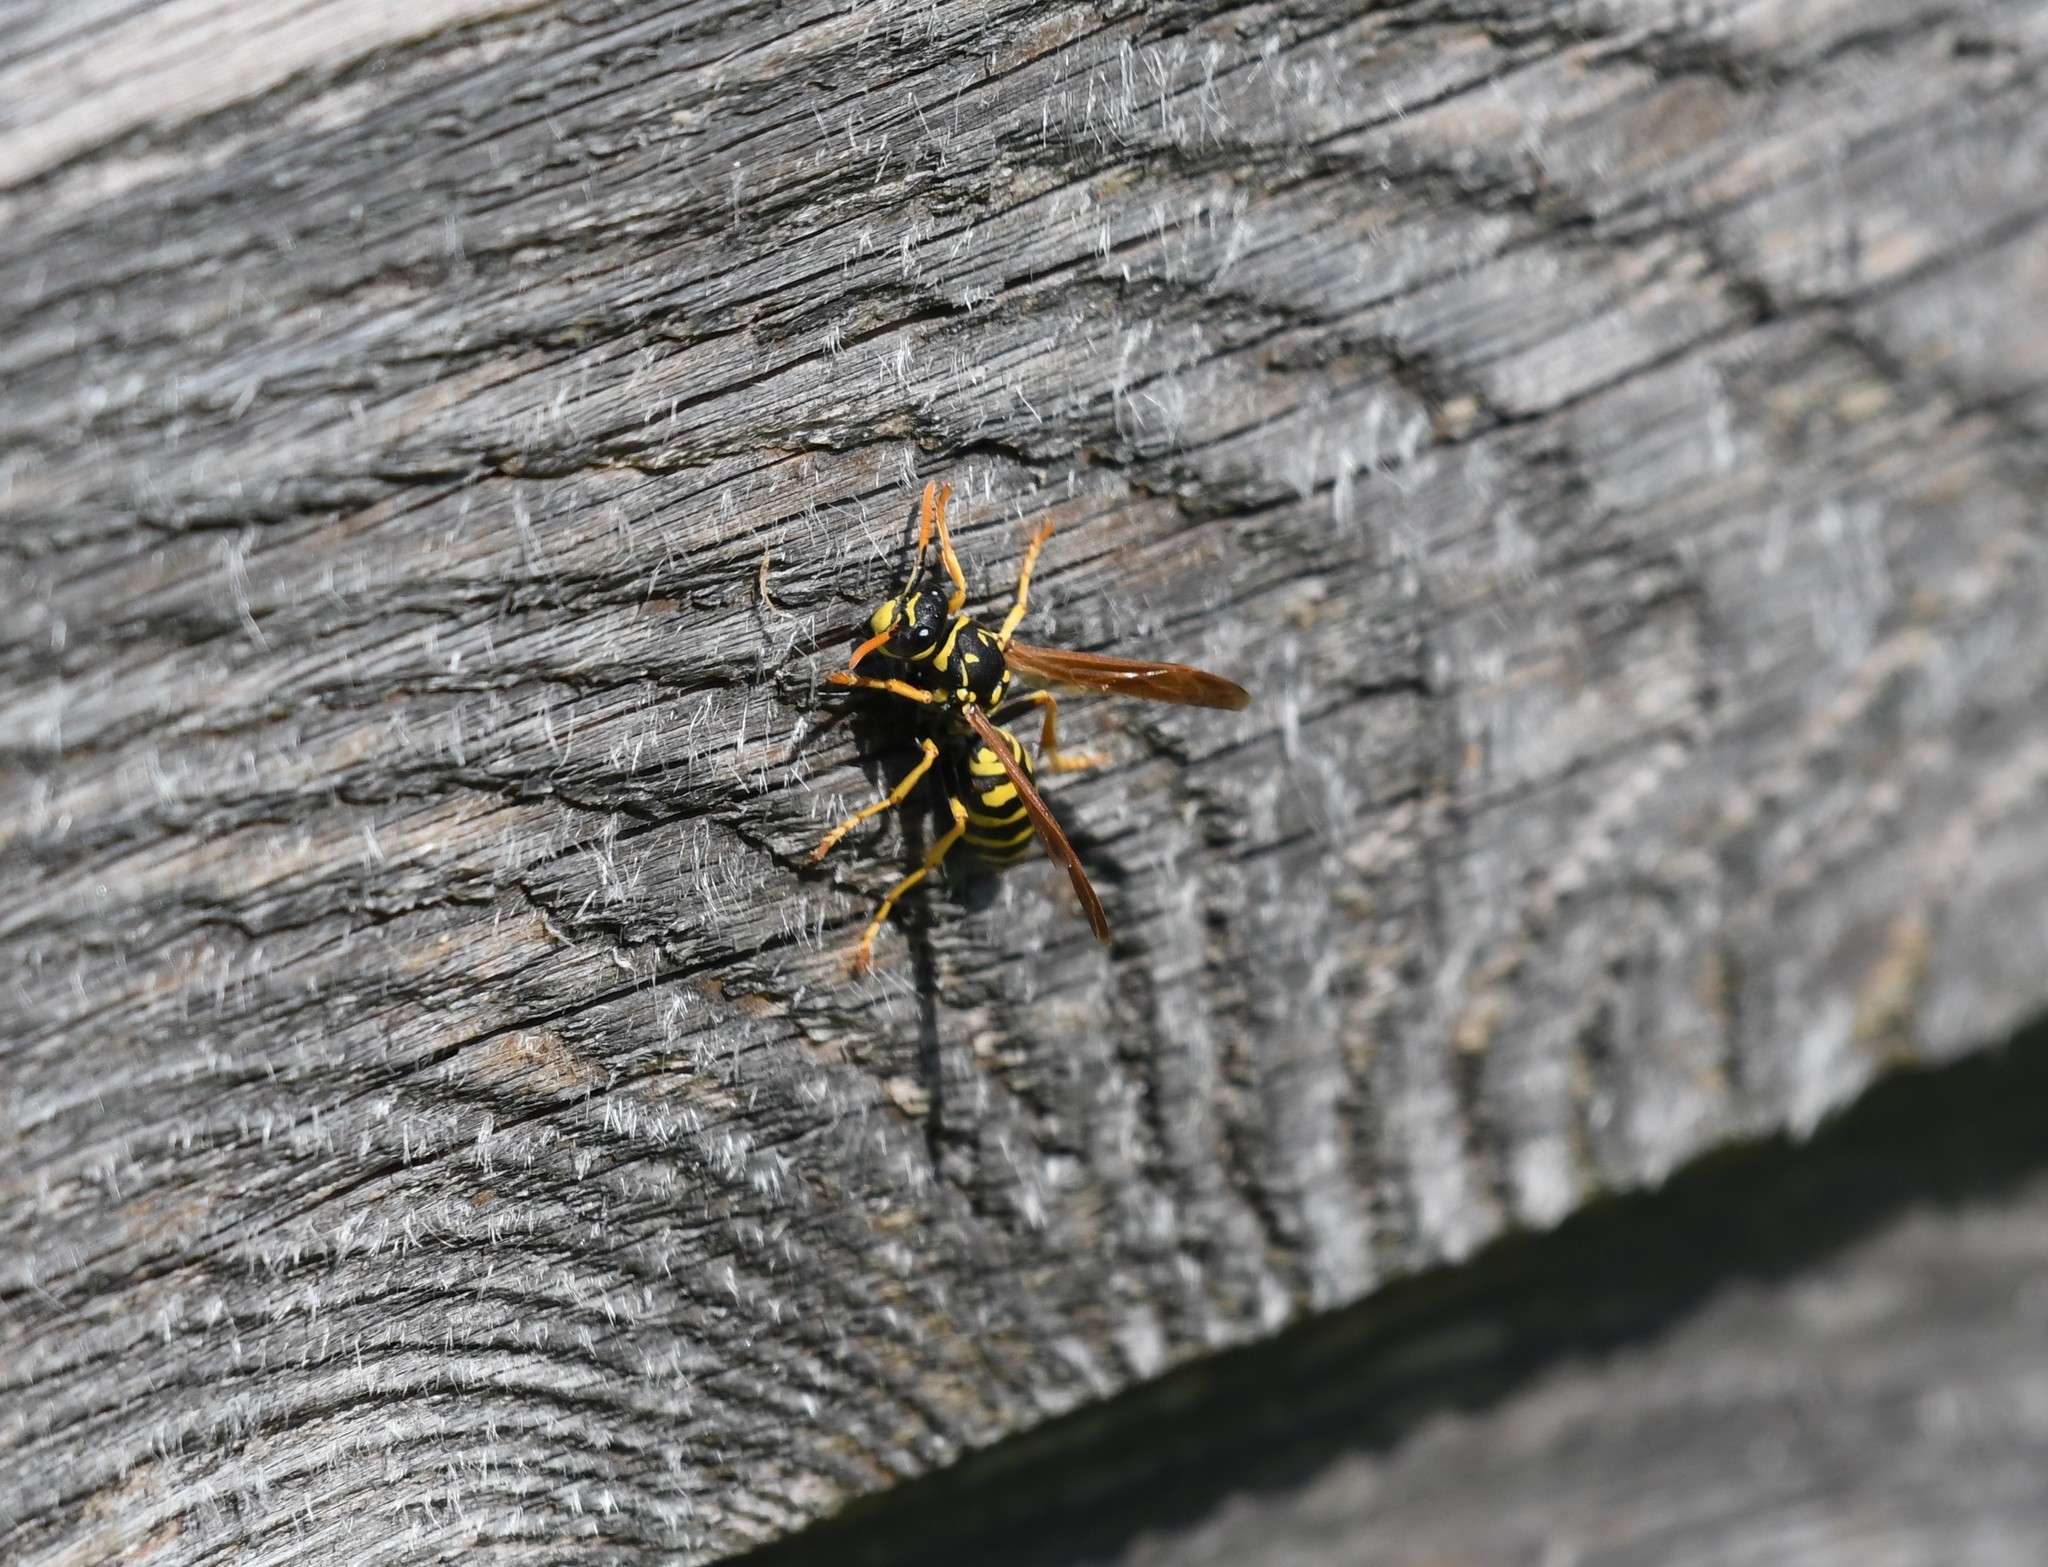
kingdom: Animalia
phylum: Arthropoda
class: Insecta
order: Hymenoptera
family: Eumenidae
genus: Polistes
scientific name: Polistes dominula
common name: Paper wasp
